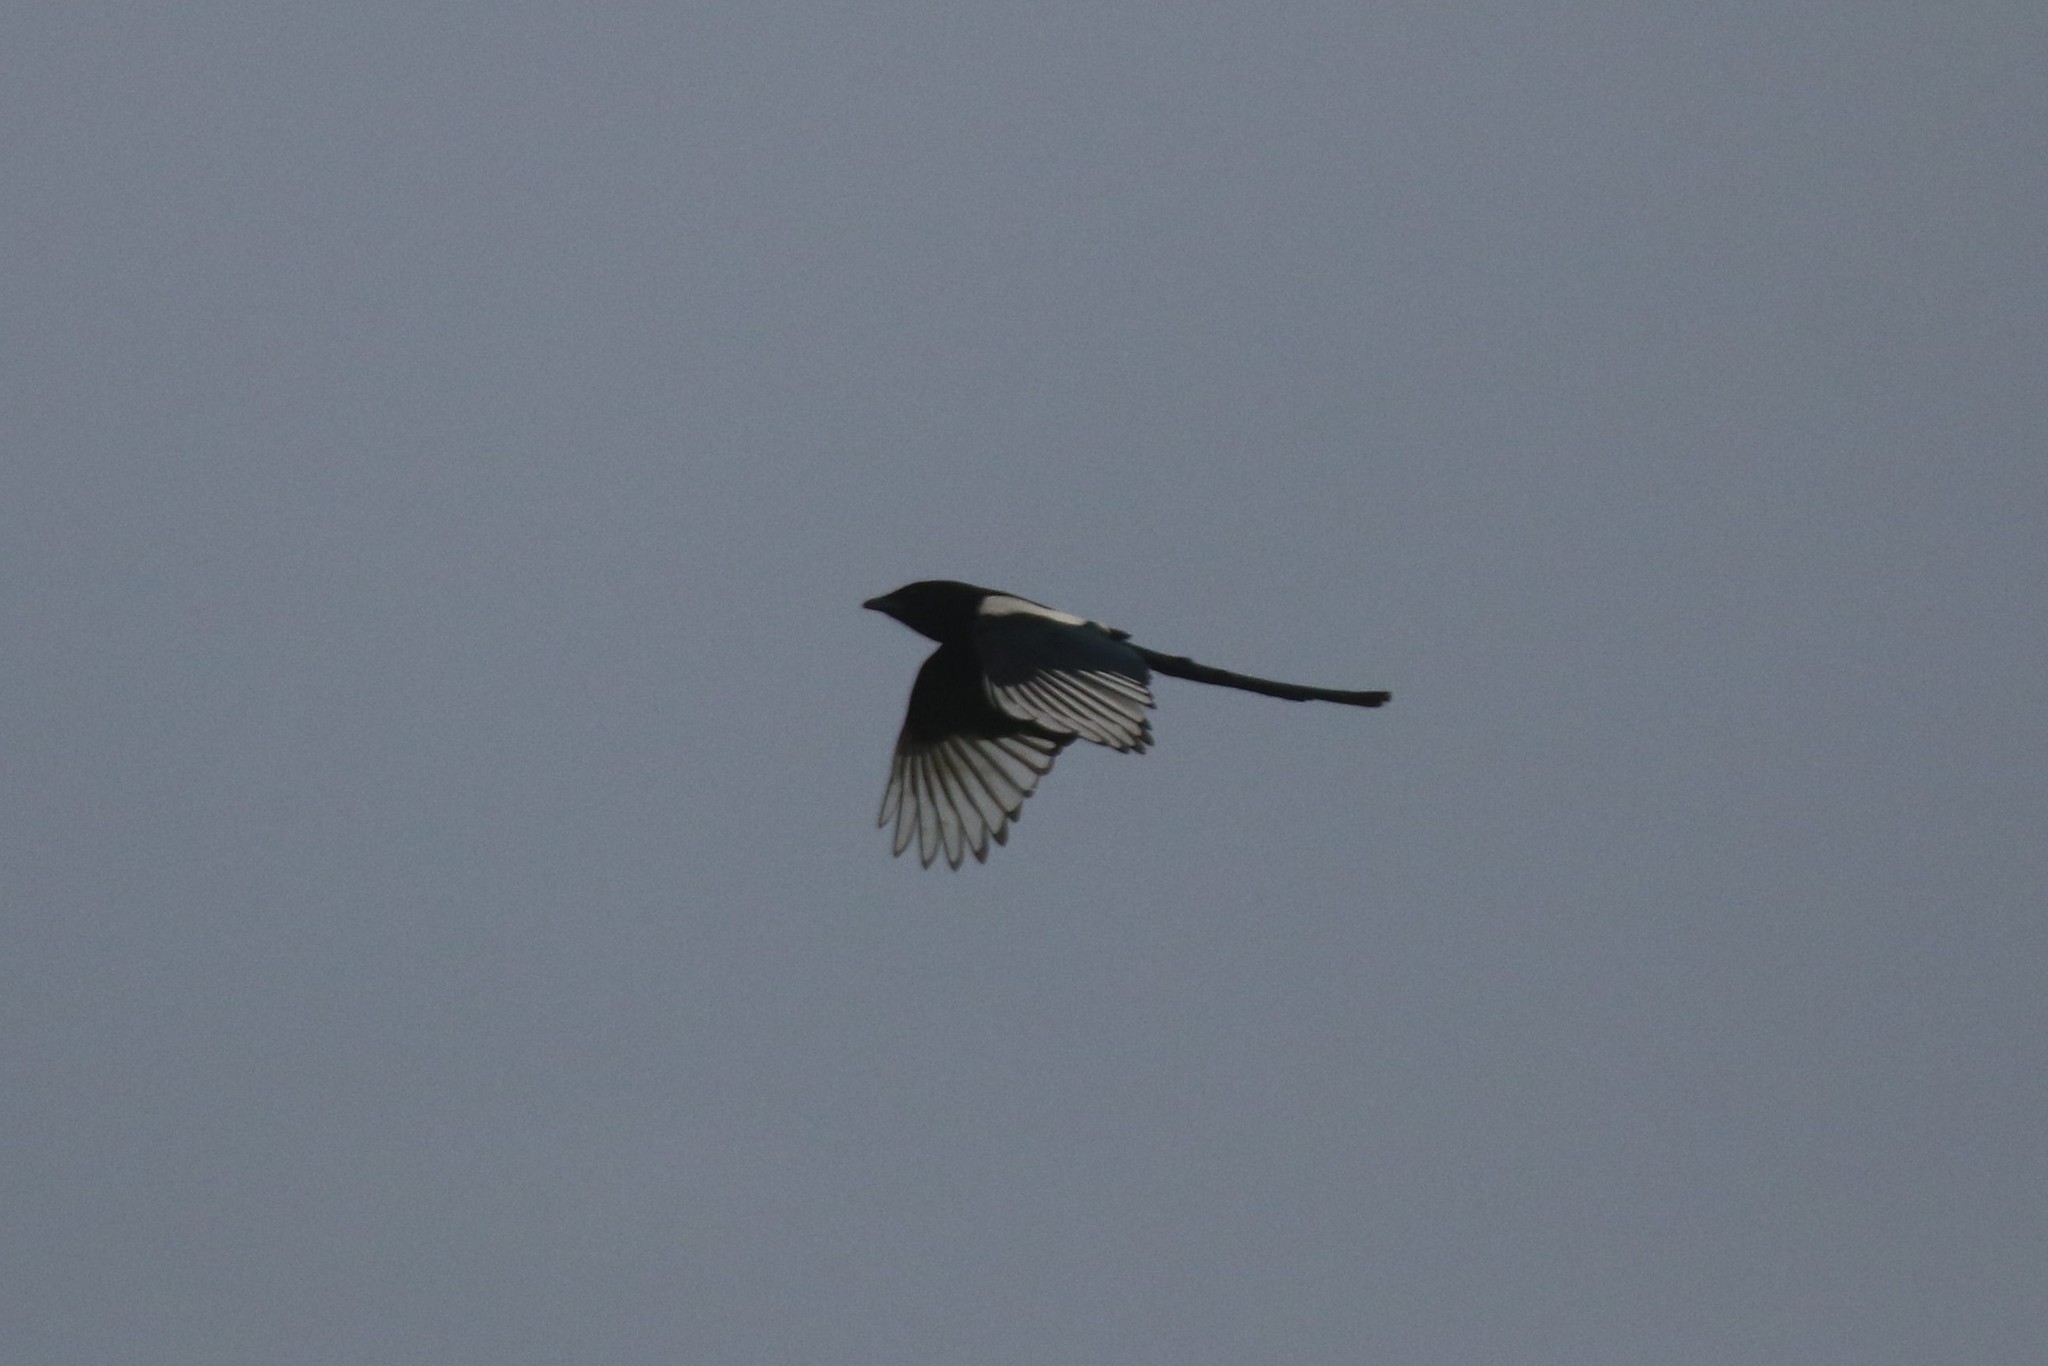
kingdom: Animalia
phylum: Chordata
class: Aves
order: Passeriformes
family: Corvidae
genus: Pica
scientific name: Pica pica
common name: Eurasian magpie
